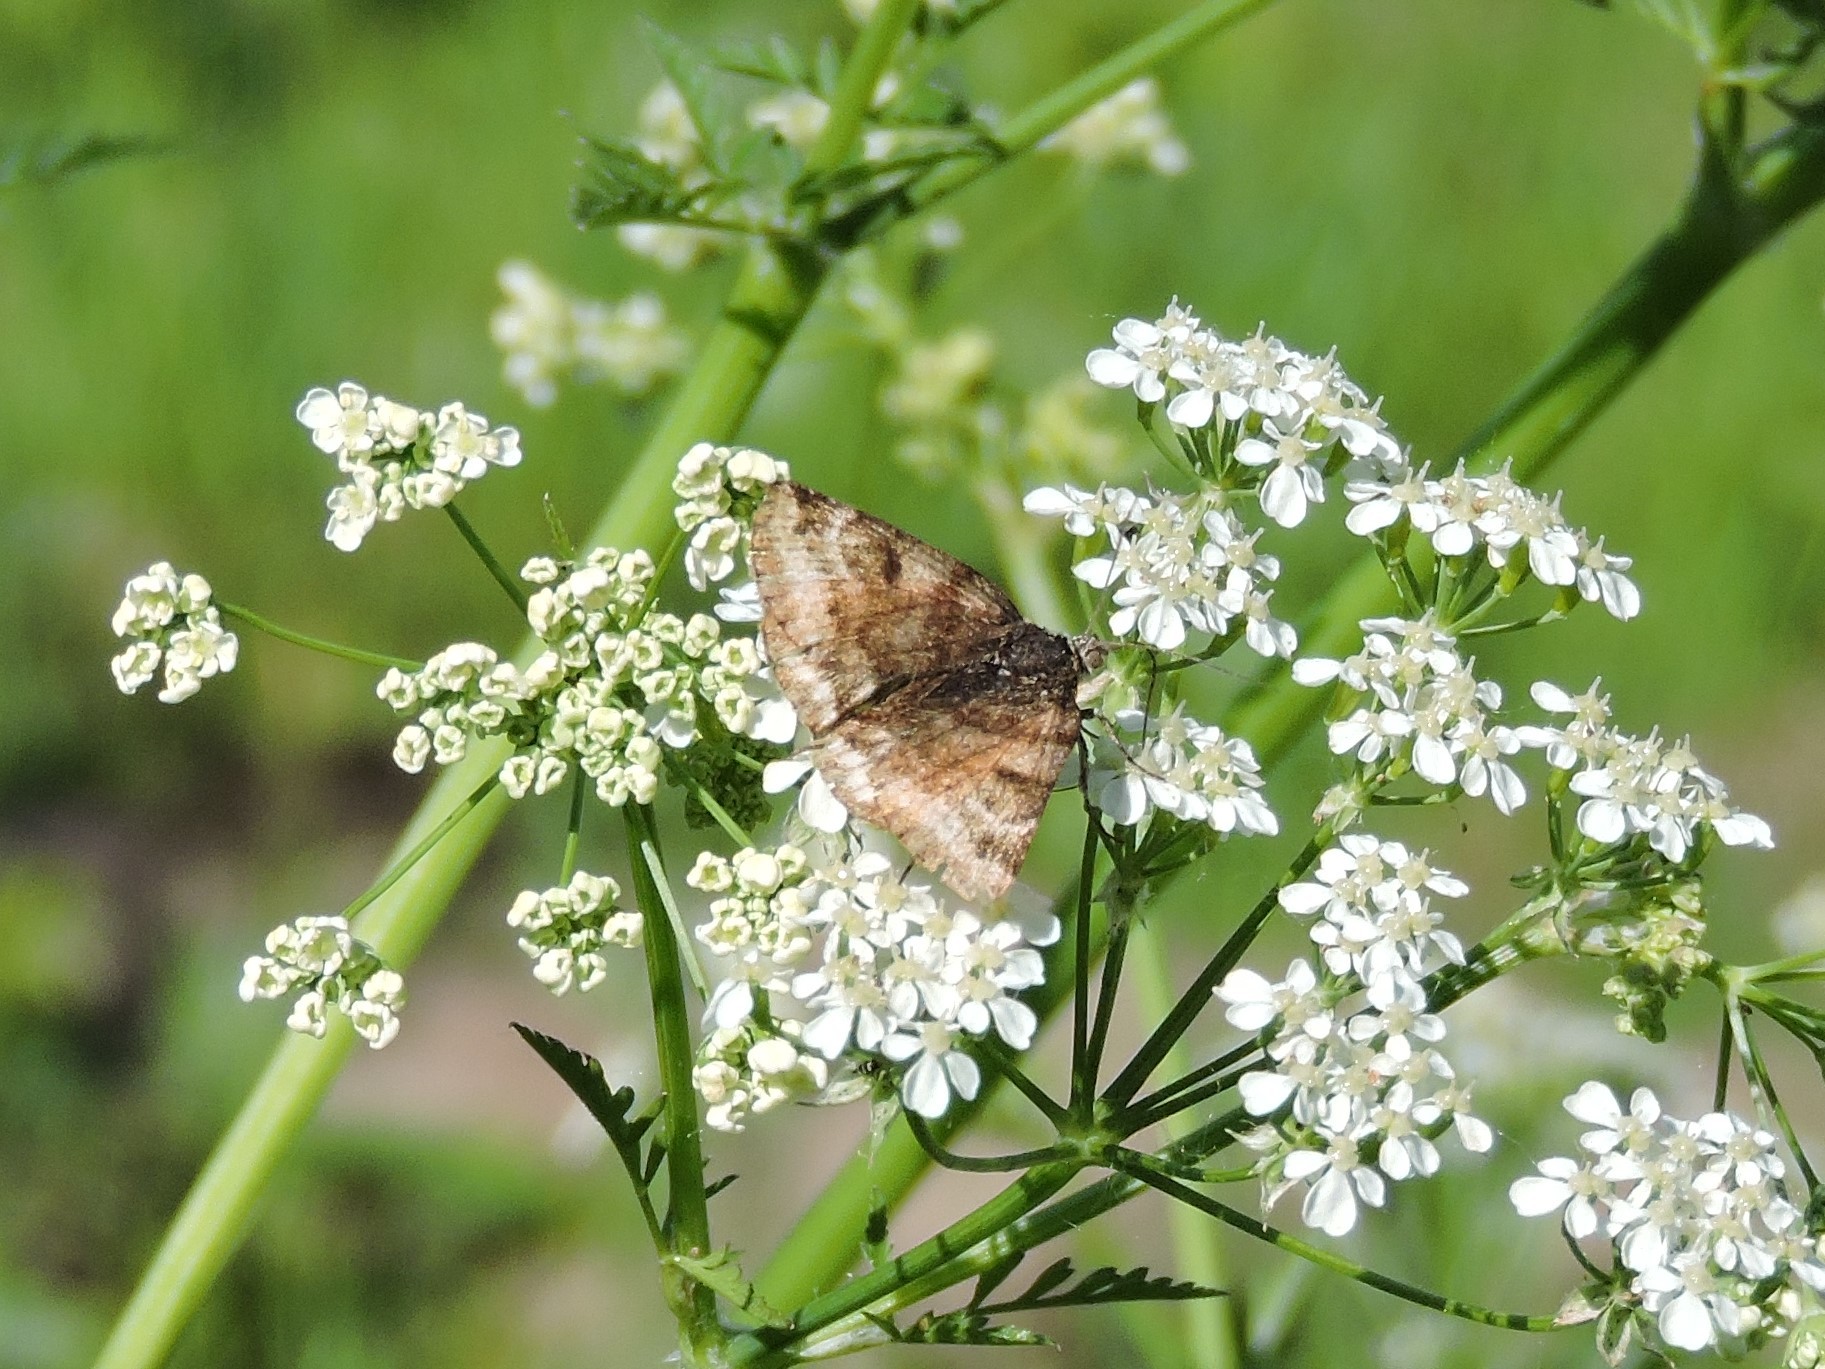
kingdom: Animalia
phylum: Arthropoda
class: Insecta
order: Lepidoptera
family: Erebidae
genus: Euclidia
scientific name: Euclidia glyphica
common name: Burnet companion
